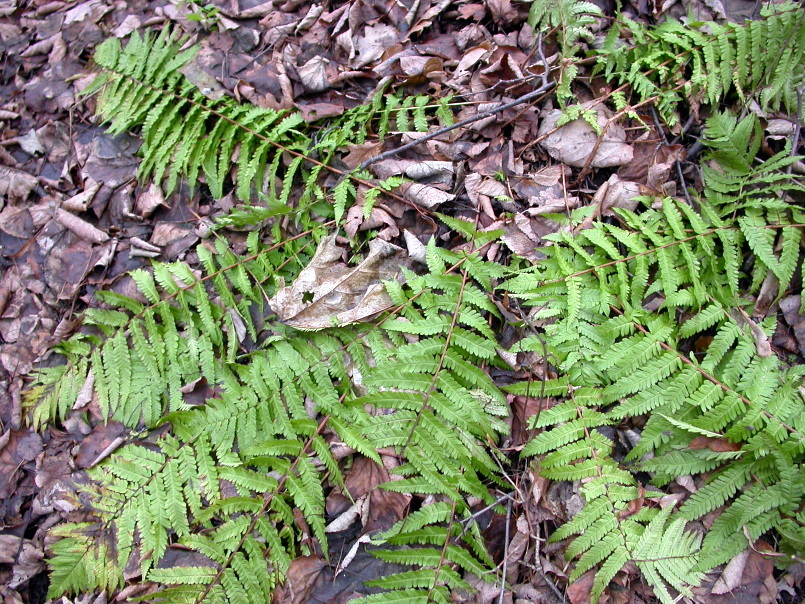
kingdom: Plantae
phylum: Tracheophyta
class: Polypodiopsida
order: Polypodiales
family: Dryopteridaceae
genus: Dryopteris
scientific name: Dryopteris filix-mas
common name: Male fern
